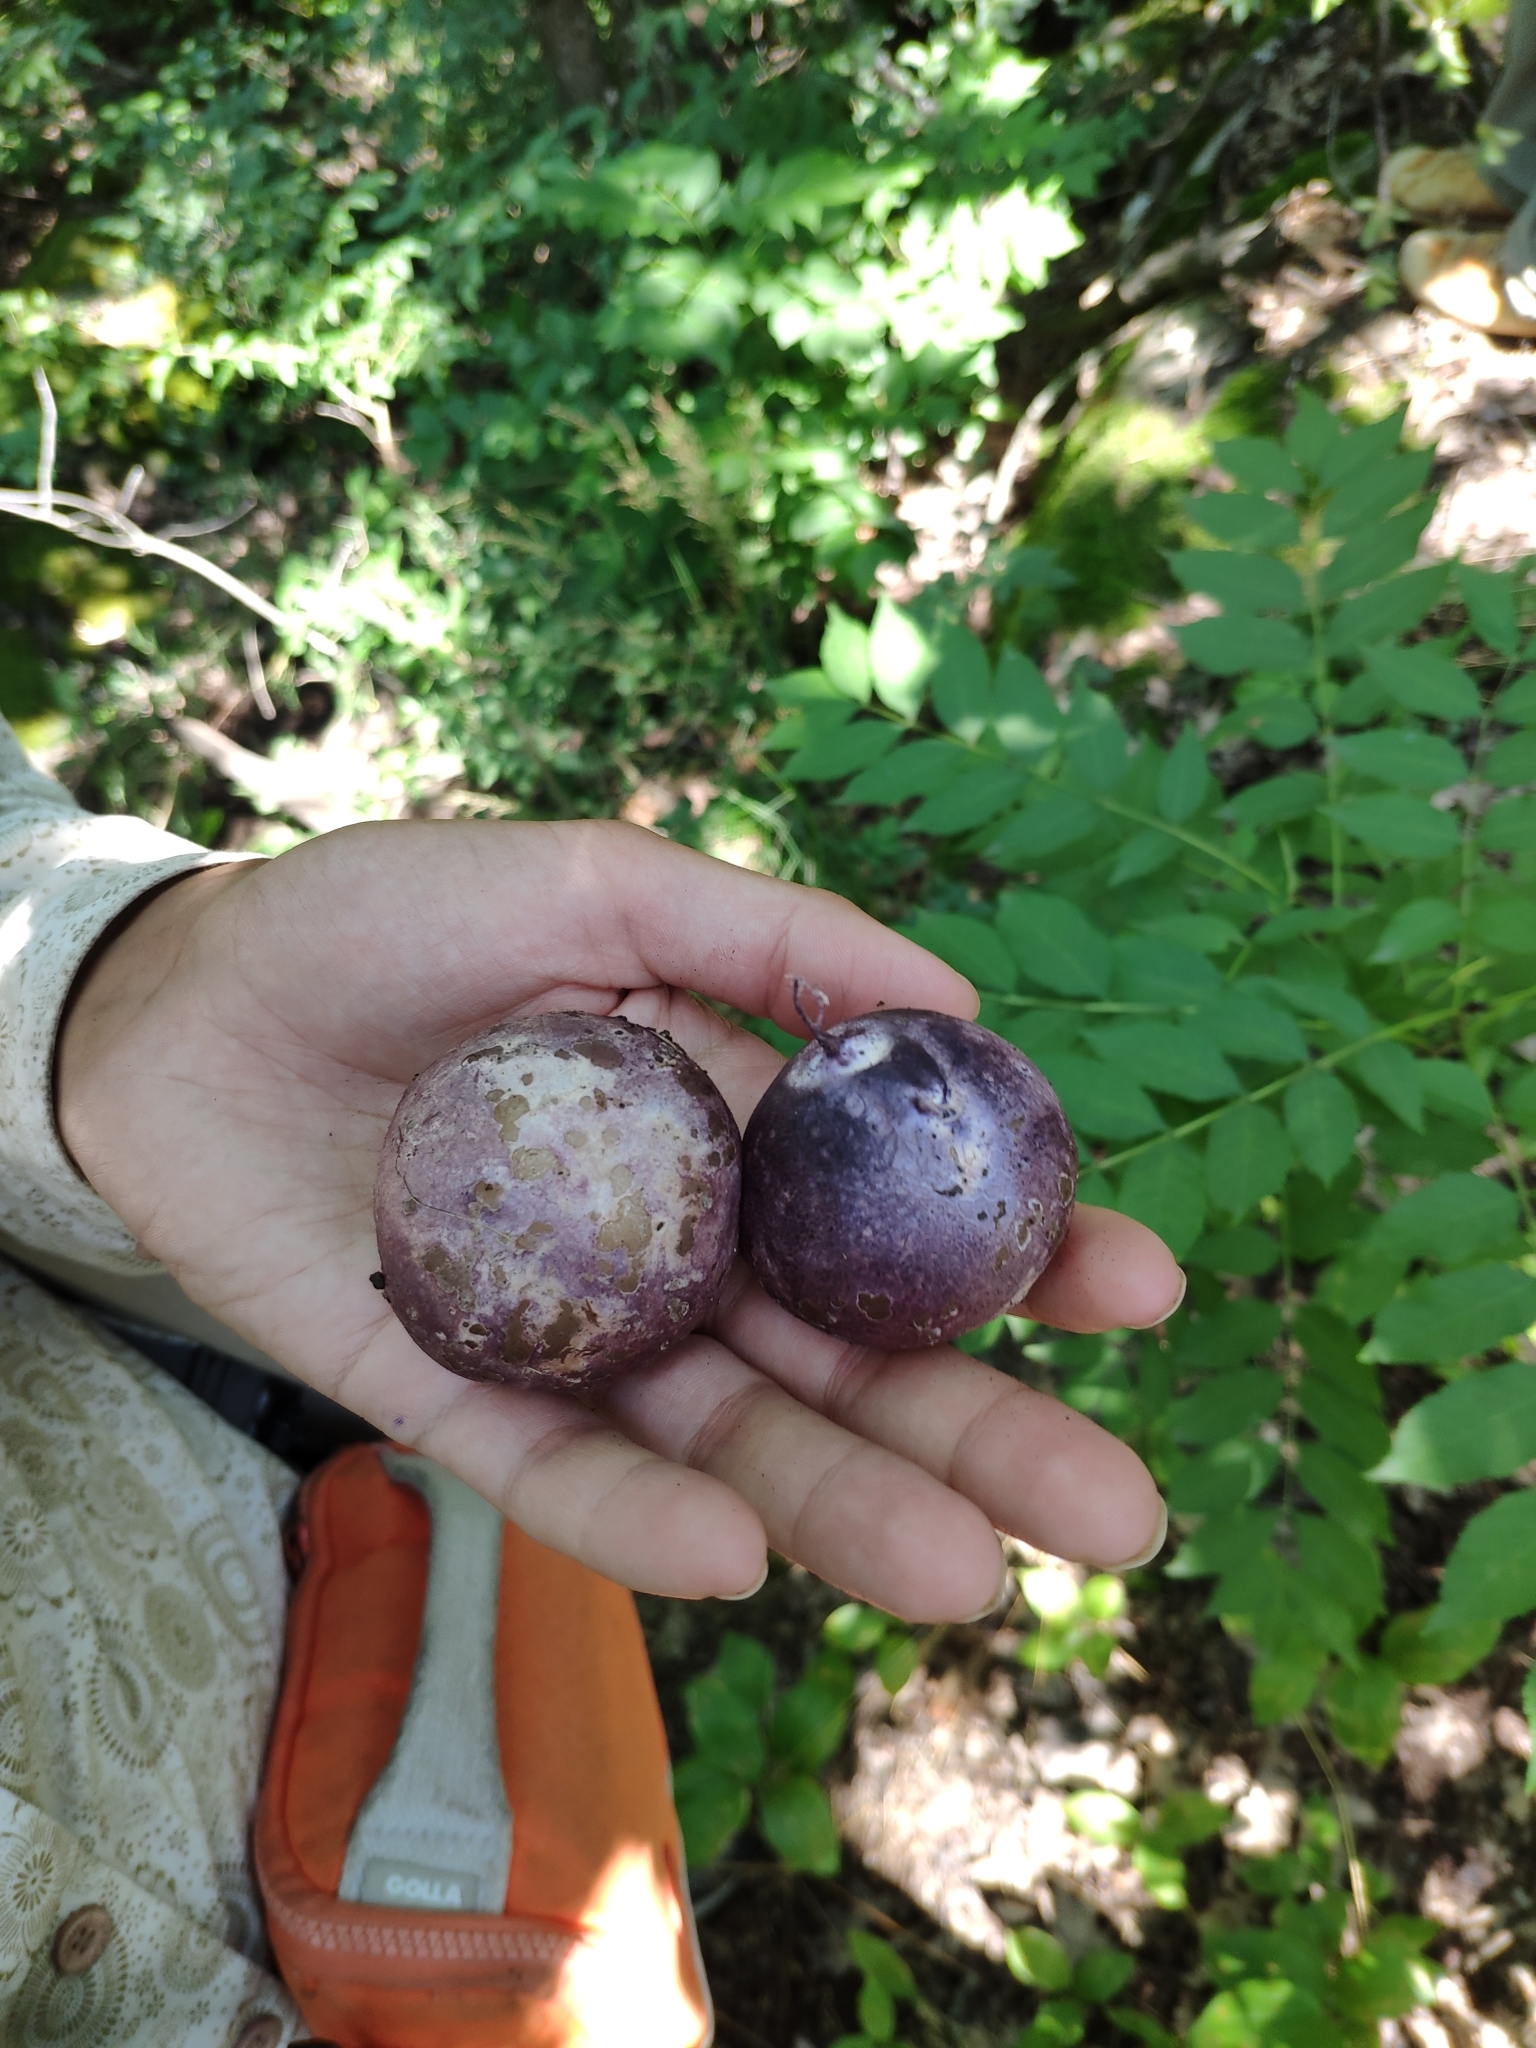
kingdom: Fungi
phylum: Basidiomycota
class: Agaricomycetes
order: Phallales
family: Phallaceae
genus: Phallus
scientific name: Phallus hadriani
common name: Sand stinkhorn
